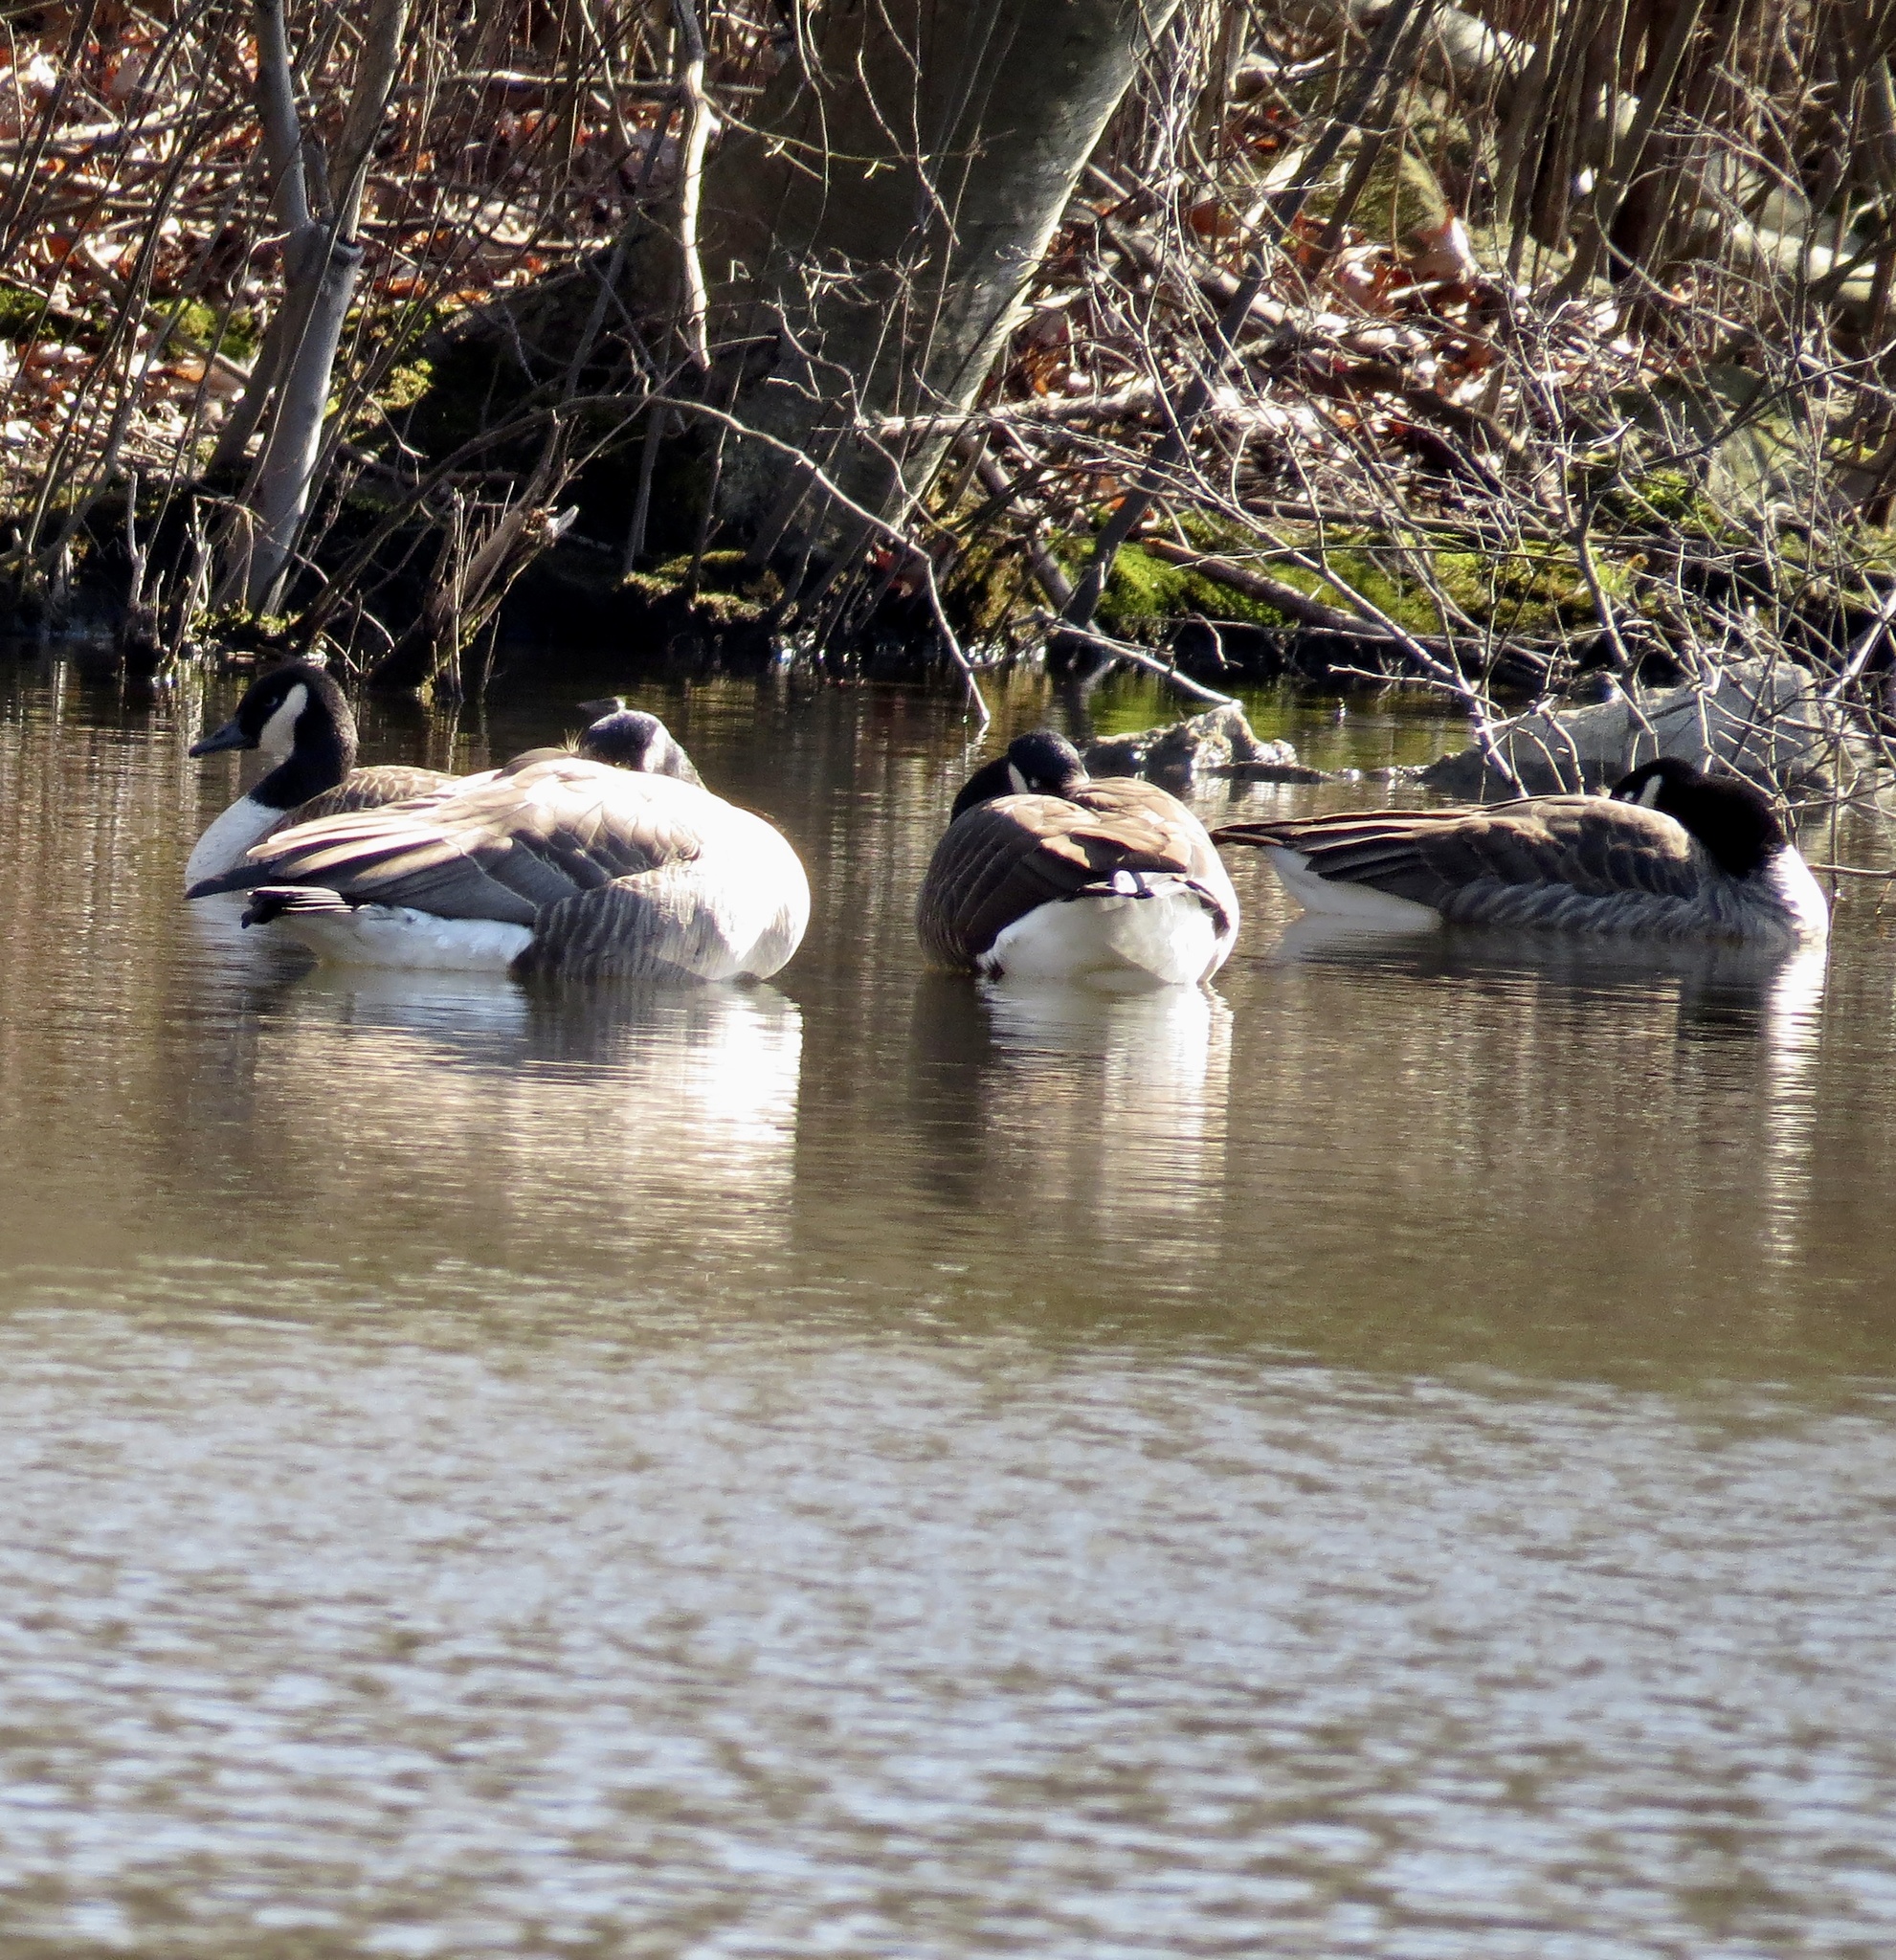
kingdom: Animalia
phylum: Chordata
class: Aves
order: Anseriformes
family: Anatidae
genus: Branta
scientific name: Branta canadensis
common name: Canada goose
